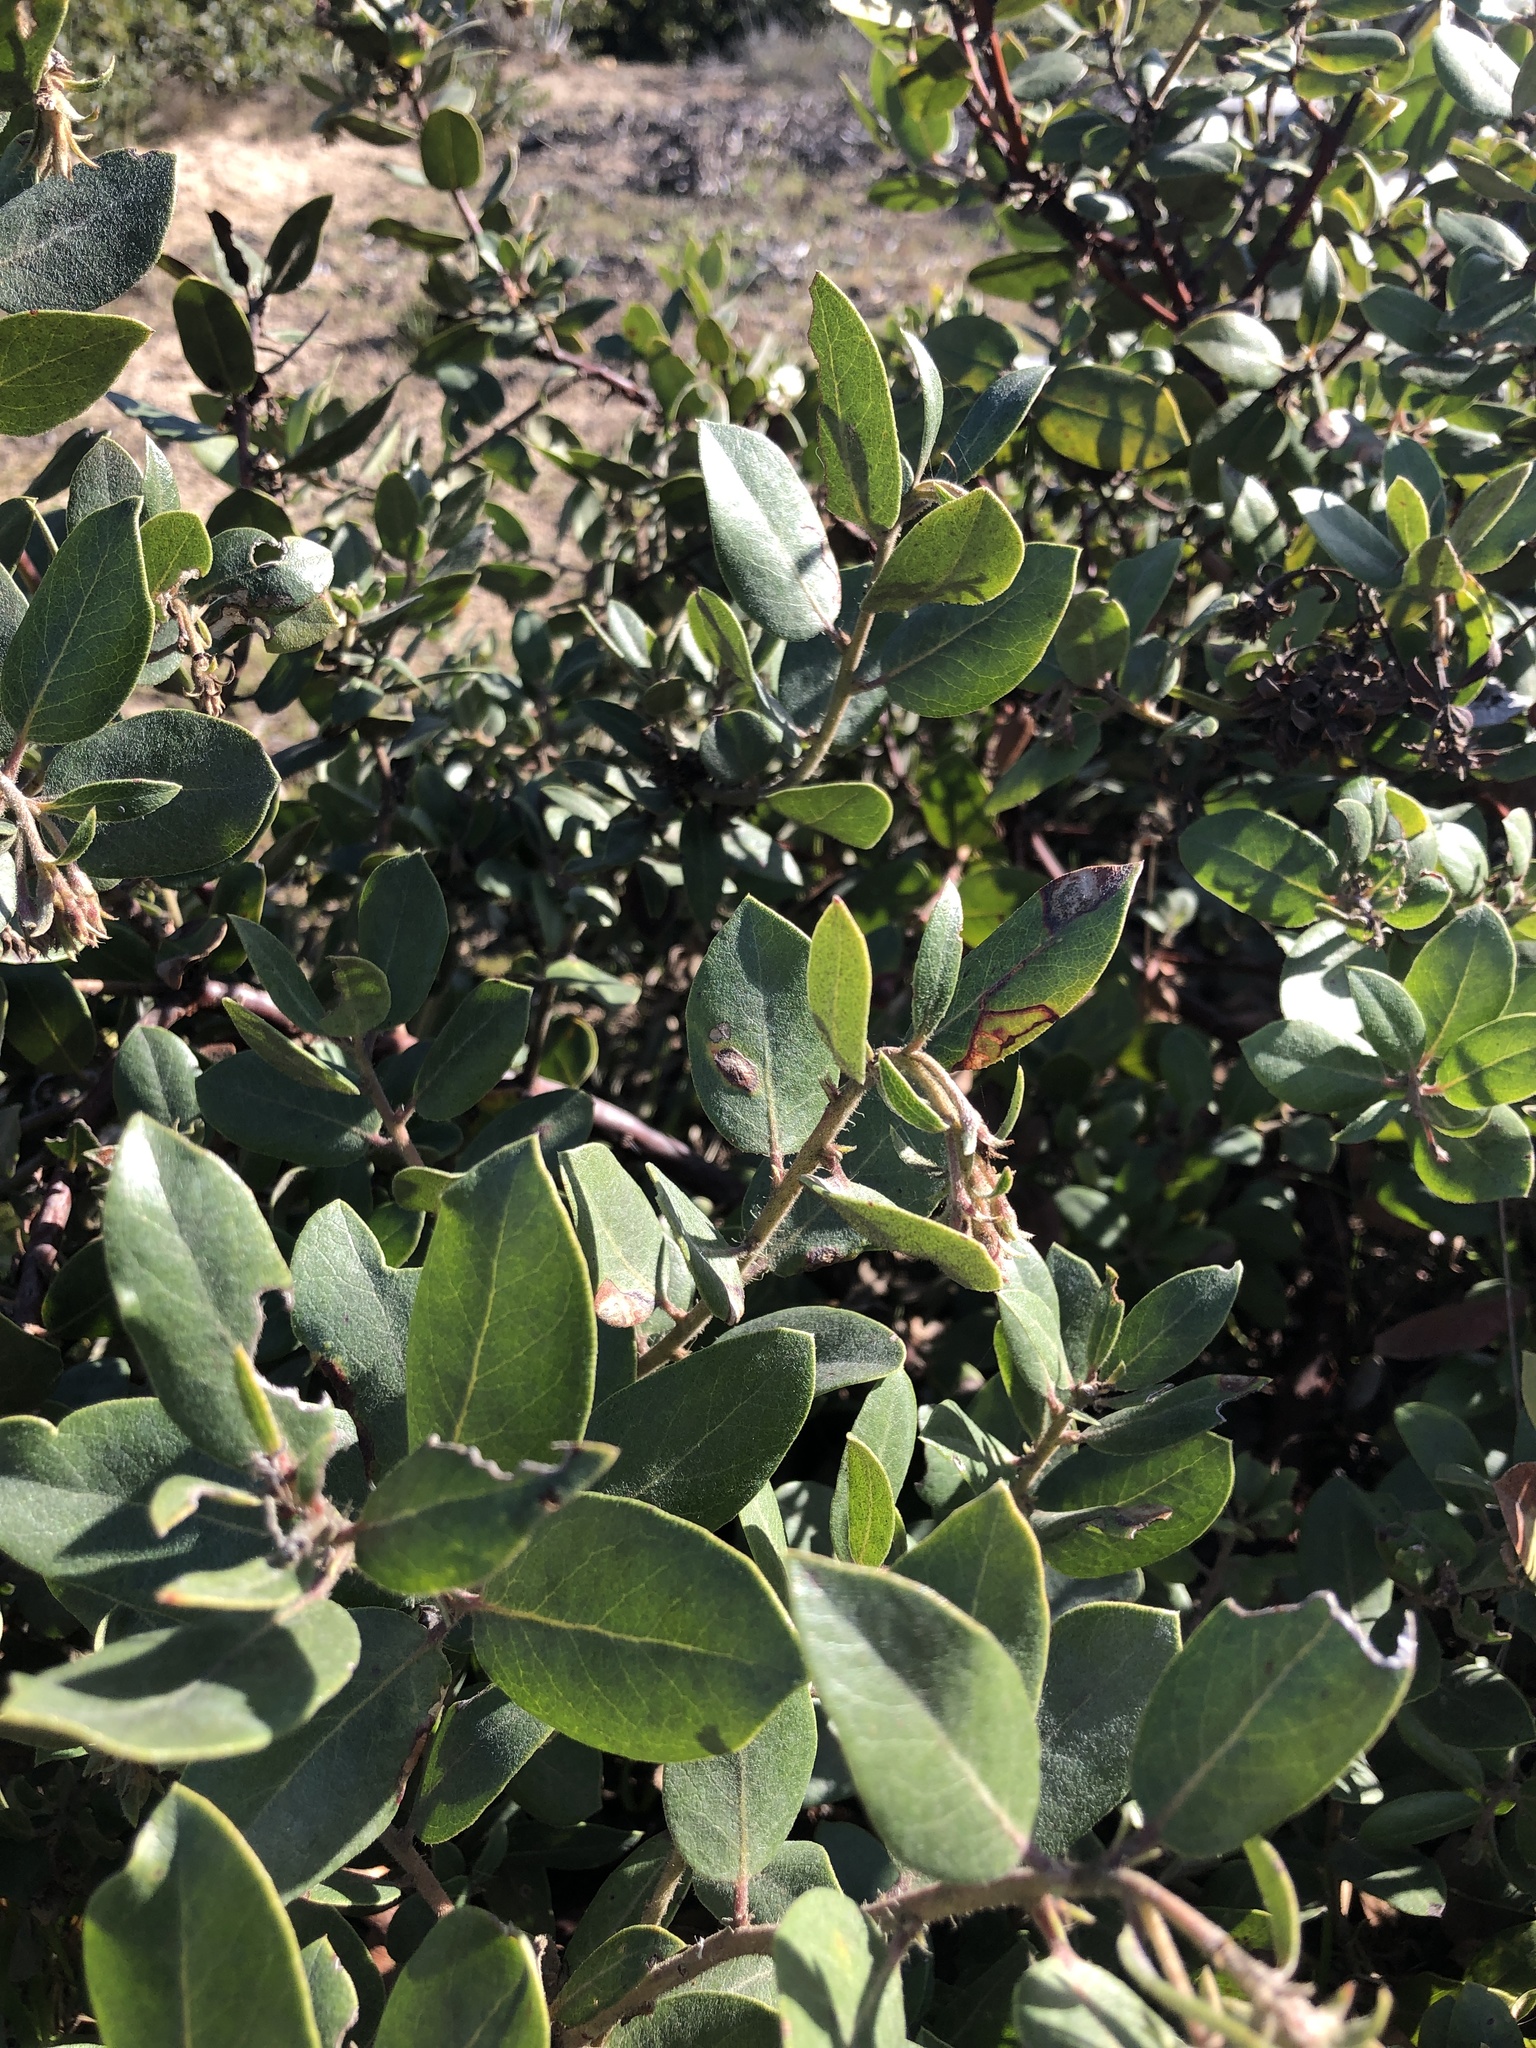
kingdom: Plantae
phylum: Tracheophyta
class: Magnoliopsida
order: Ericales
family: Ericaceae
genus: Arctostaphylos
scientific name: Arctostaphylos crustacea
